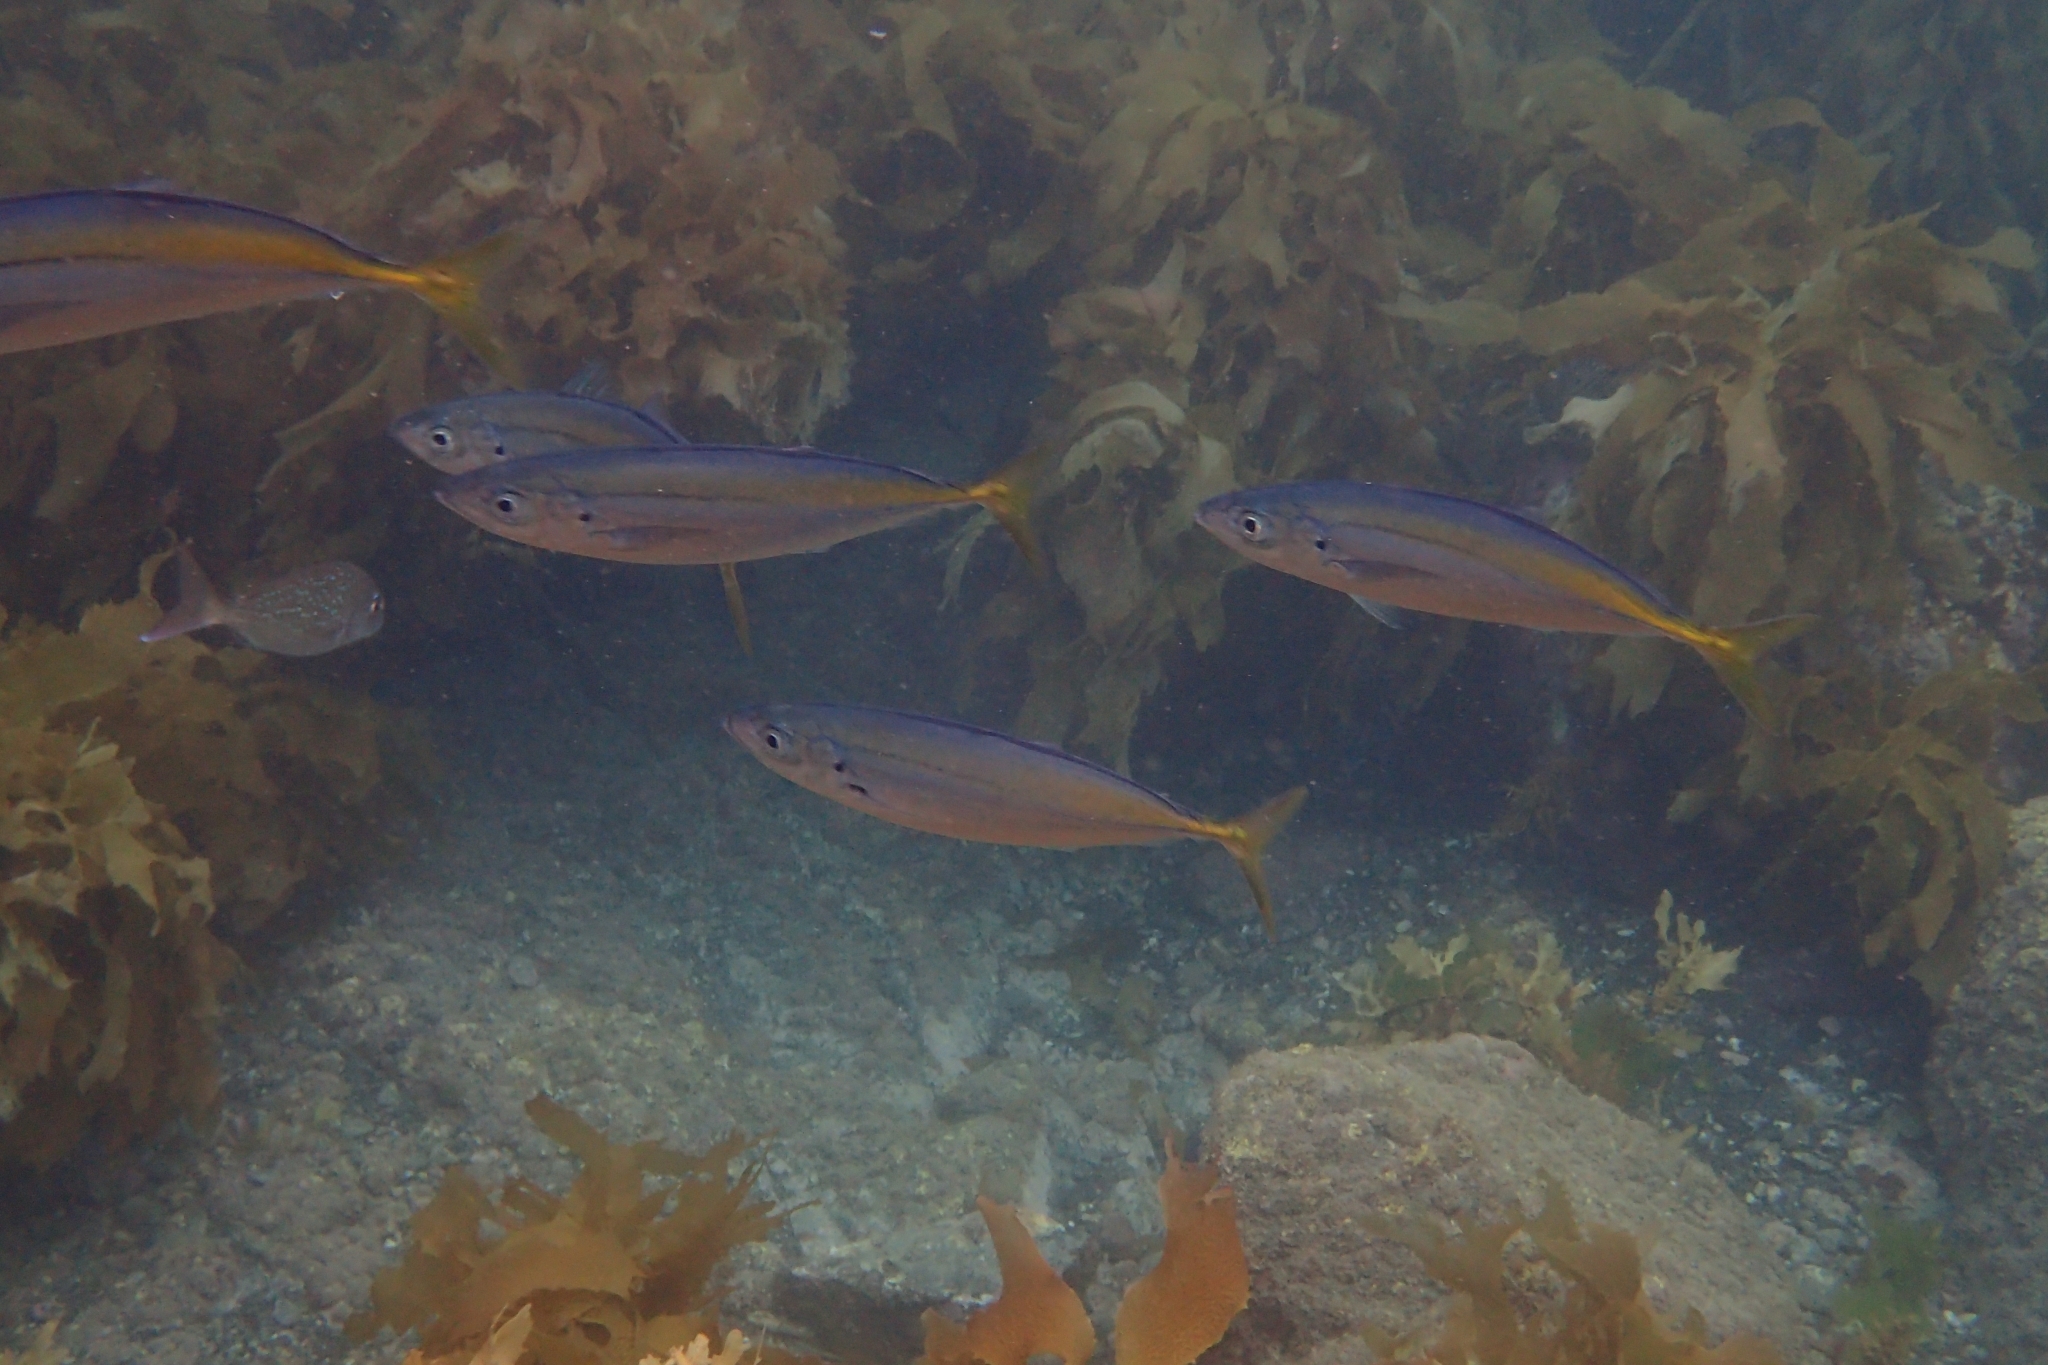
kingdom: Animalia
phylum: Chordata
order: Perciformes
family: Carangidae
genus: Decapterus
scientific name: Decapterus koheru
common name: Koheru
